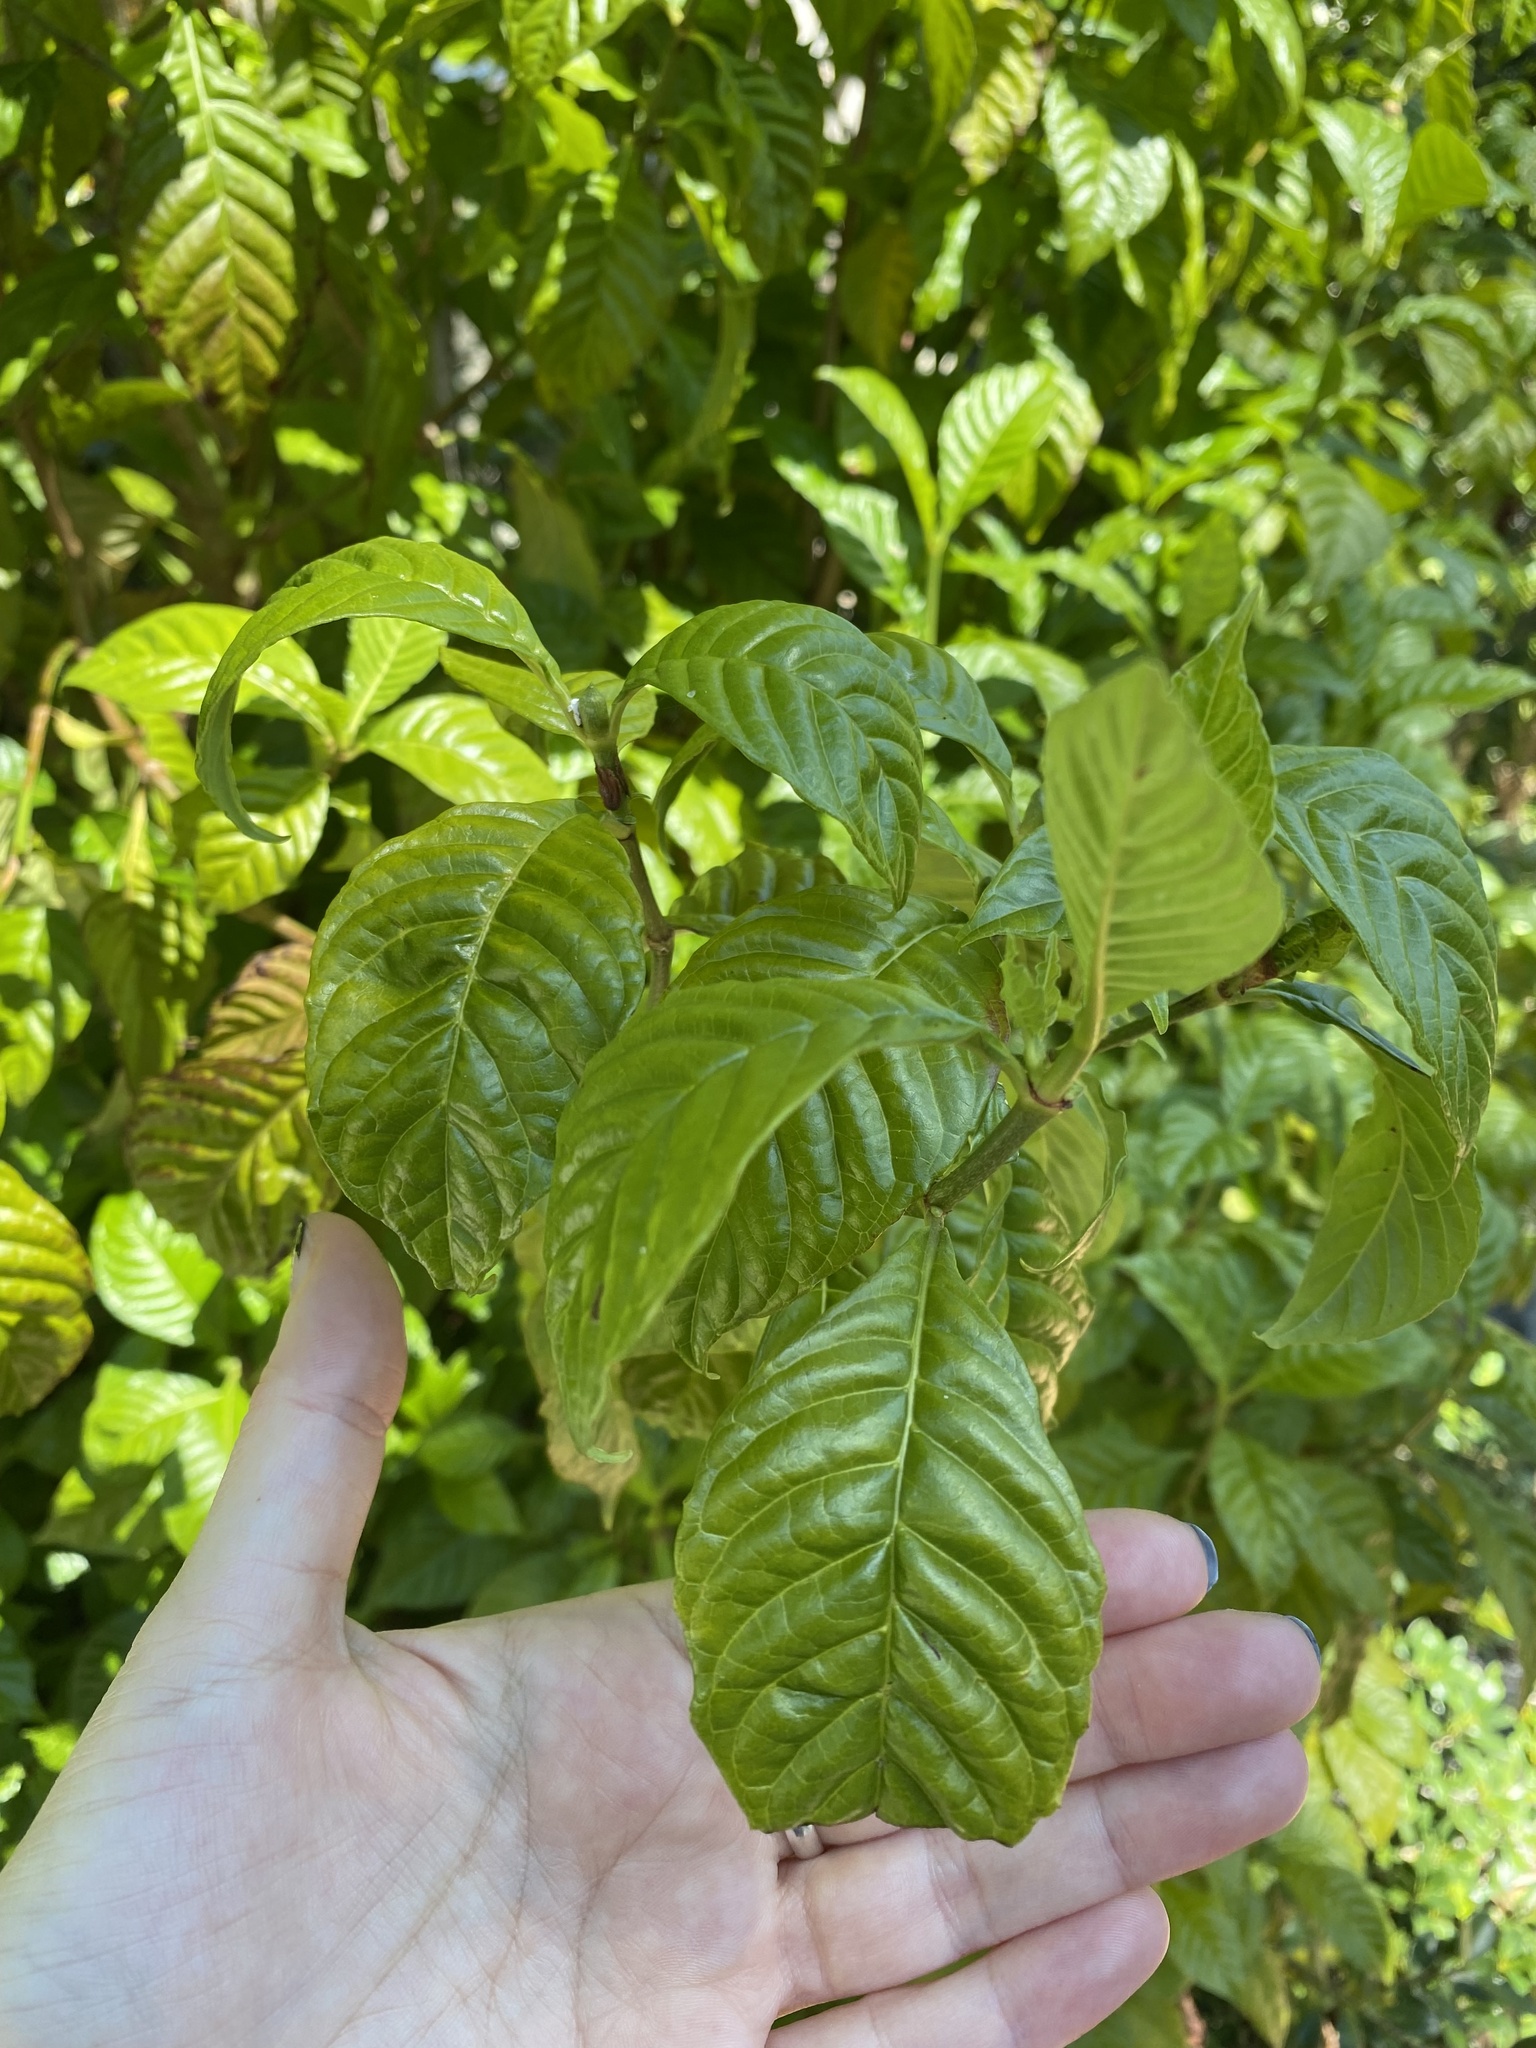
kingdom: Plantae
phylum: Tracheophyta
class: Magnoliopsida
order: Gentianales
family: Rubiaceae
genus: Psychotria
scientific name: Psychotria nervosa
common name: Bastard cankerberry
